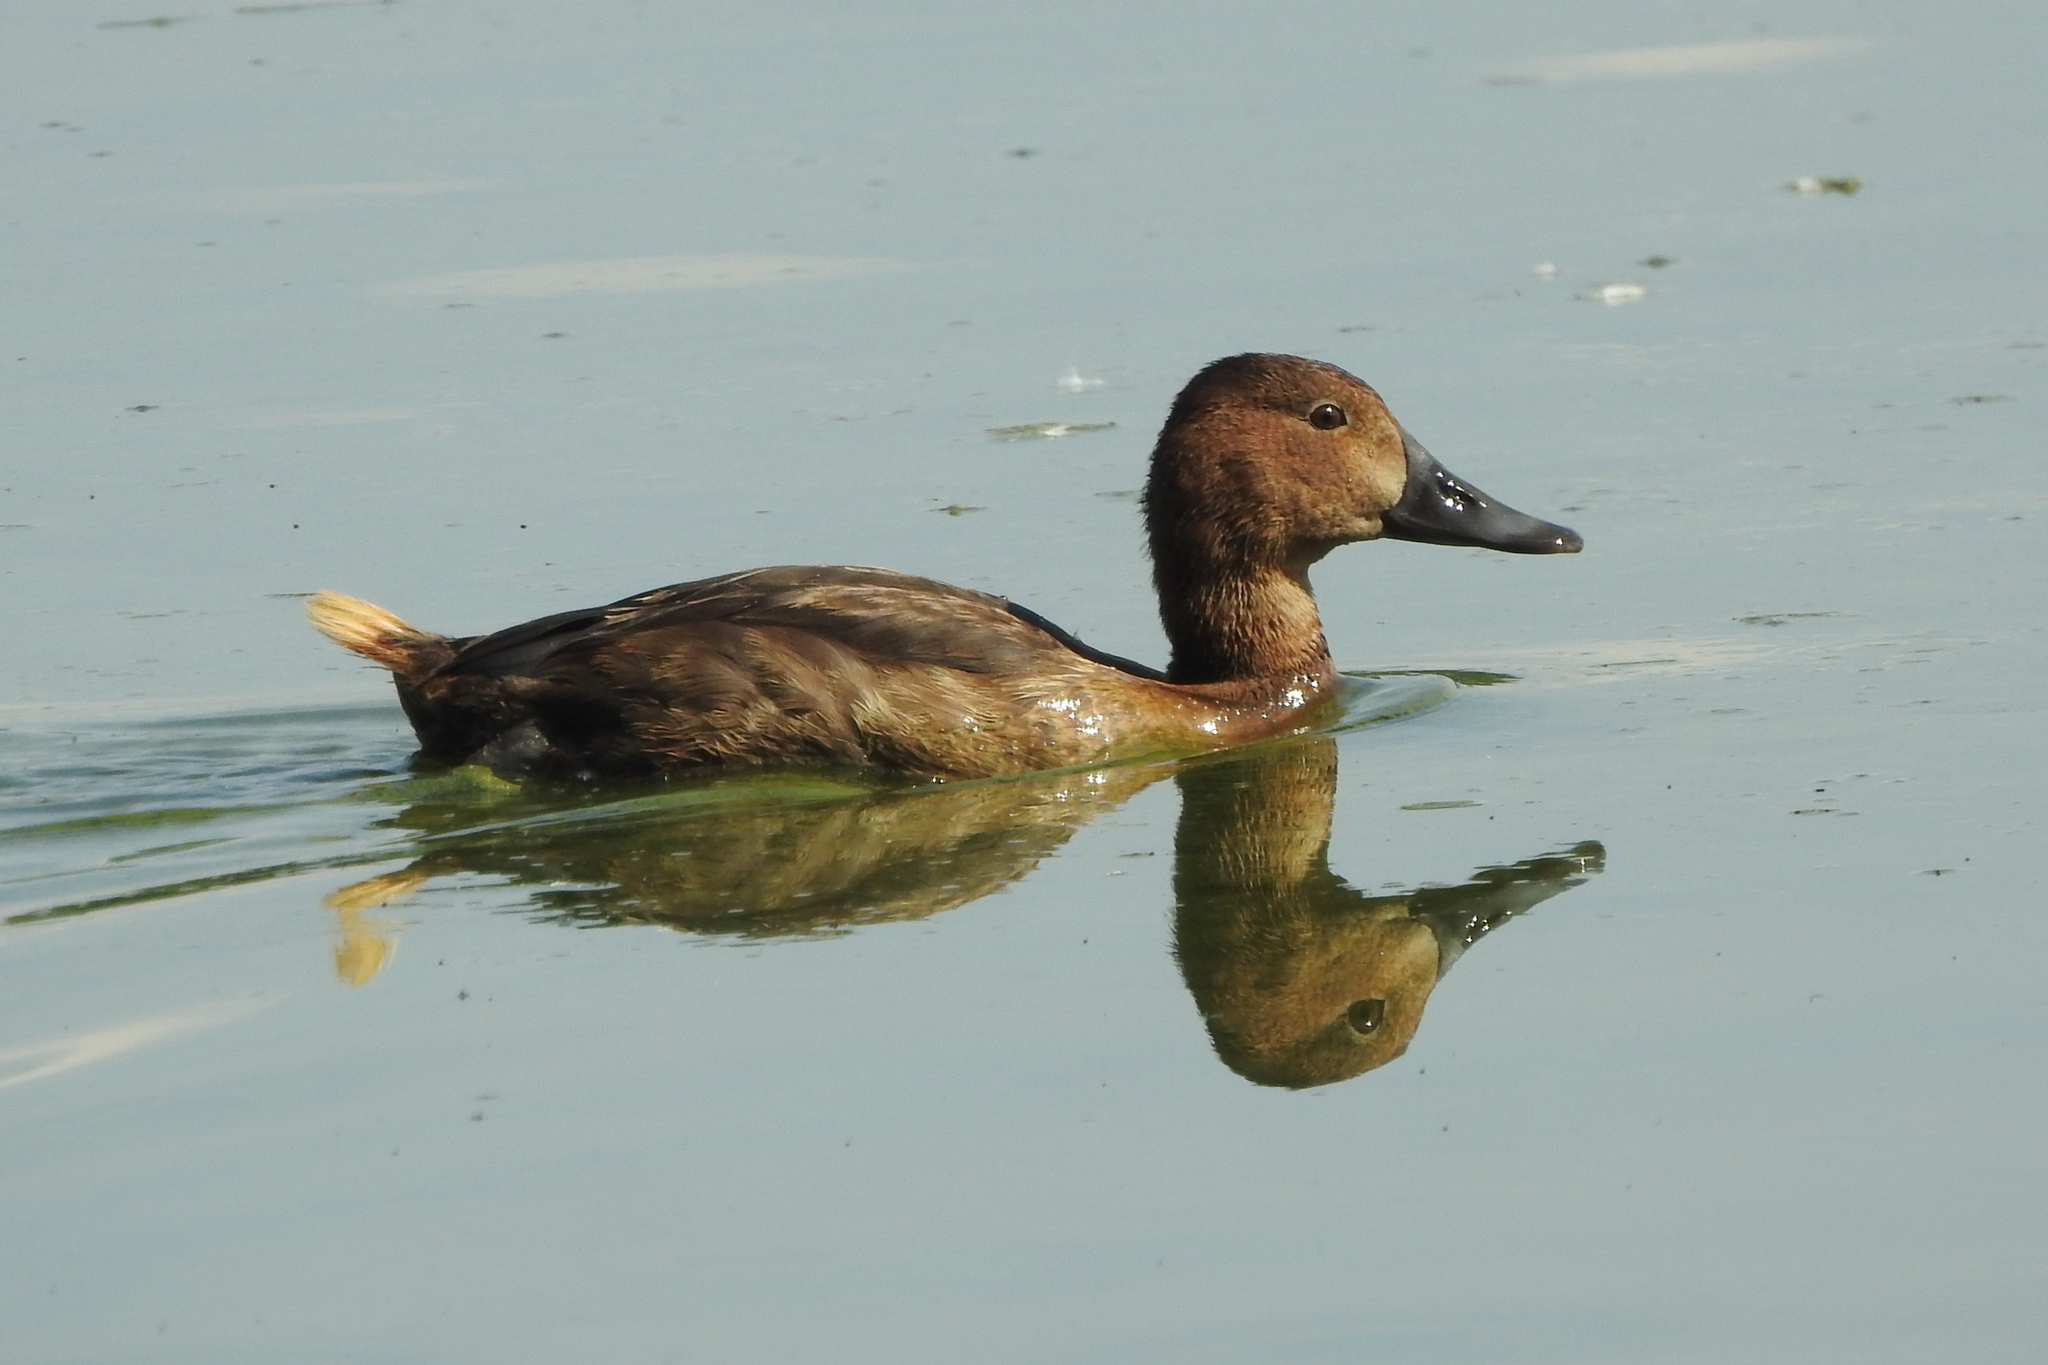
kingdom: Animalia
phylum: Chordata
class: Aves
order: Anseriformes
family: Anatidae
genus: Aythya
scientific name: Aythya ferina
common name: Common pochard
